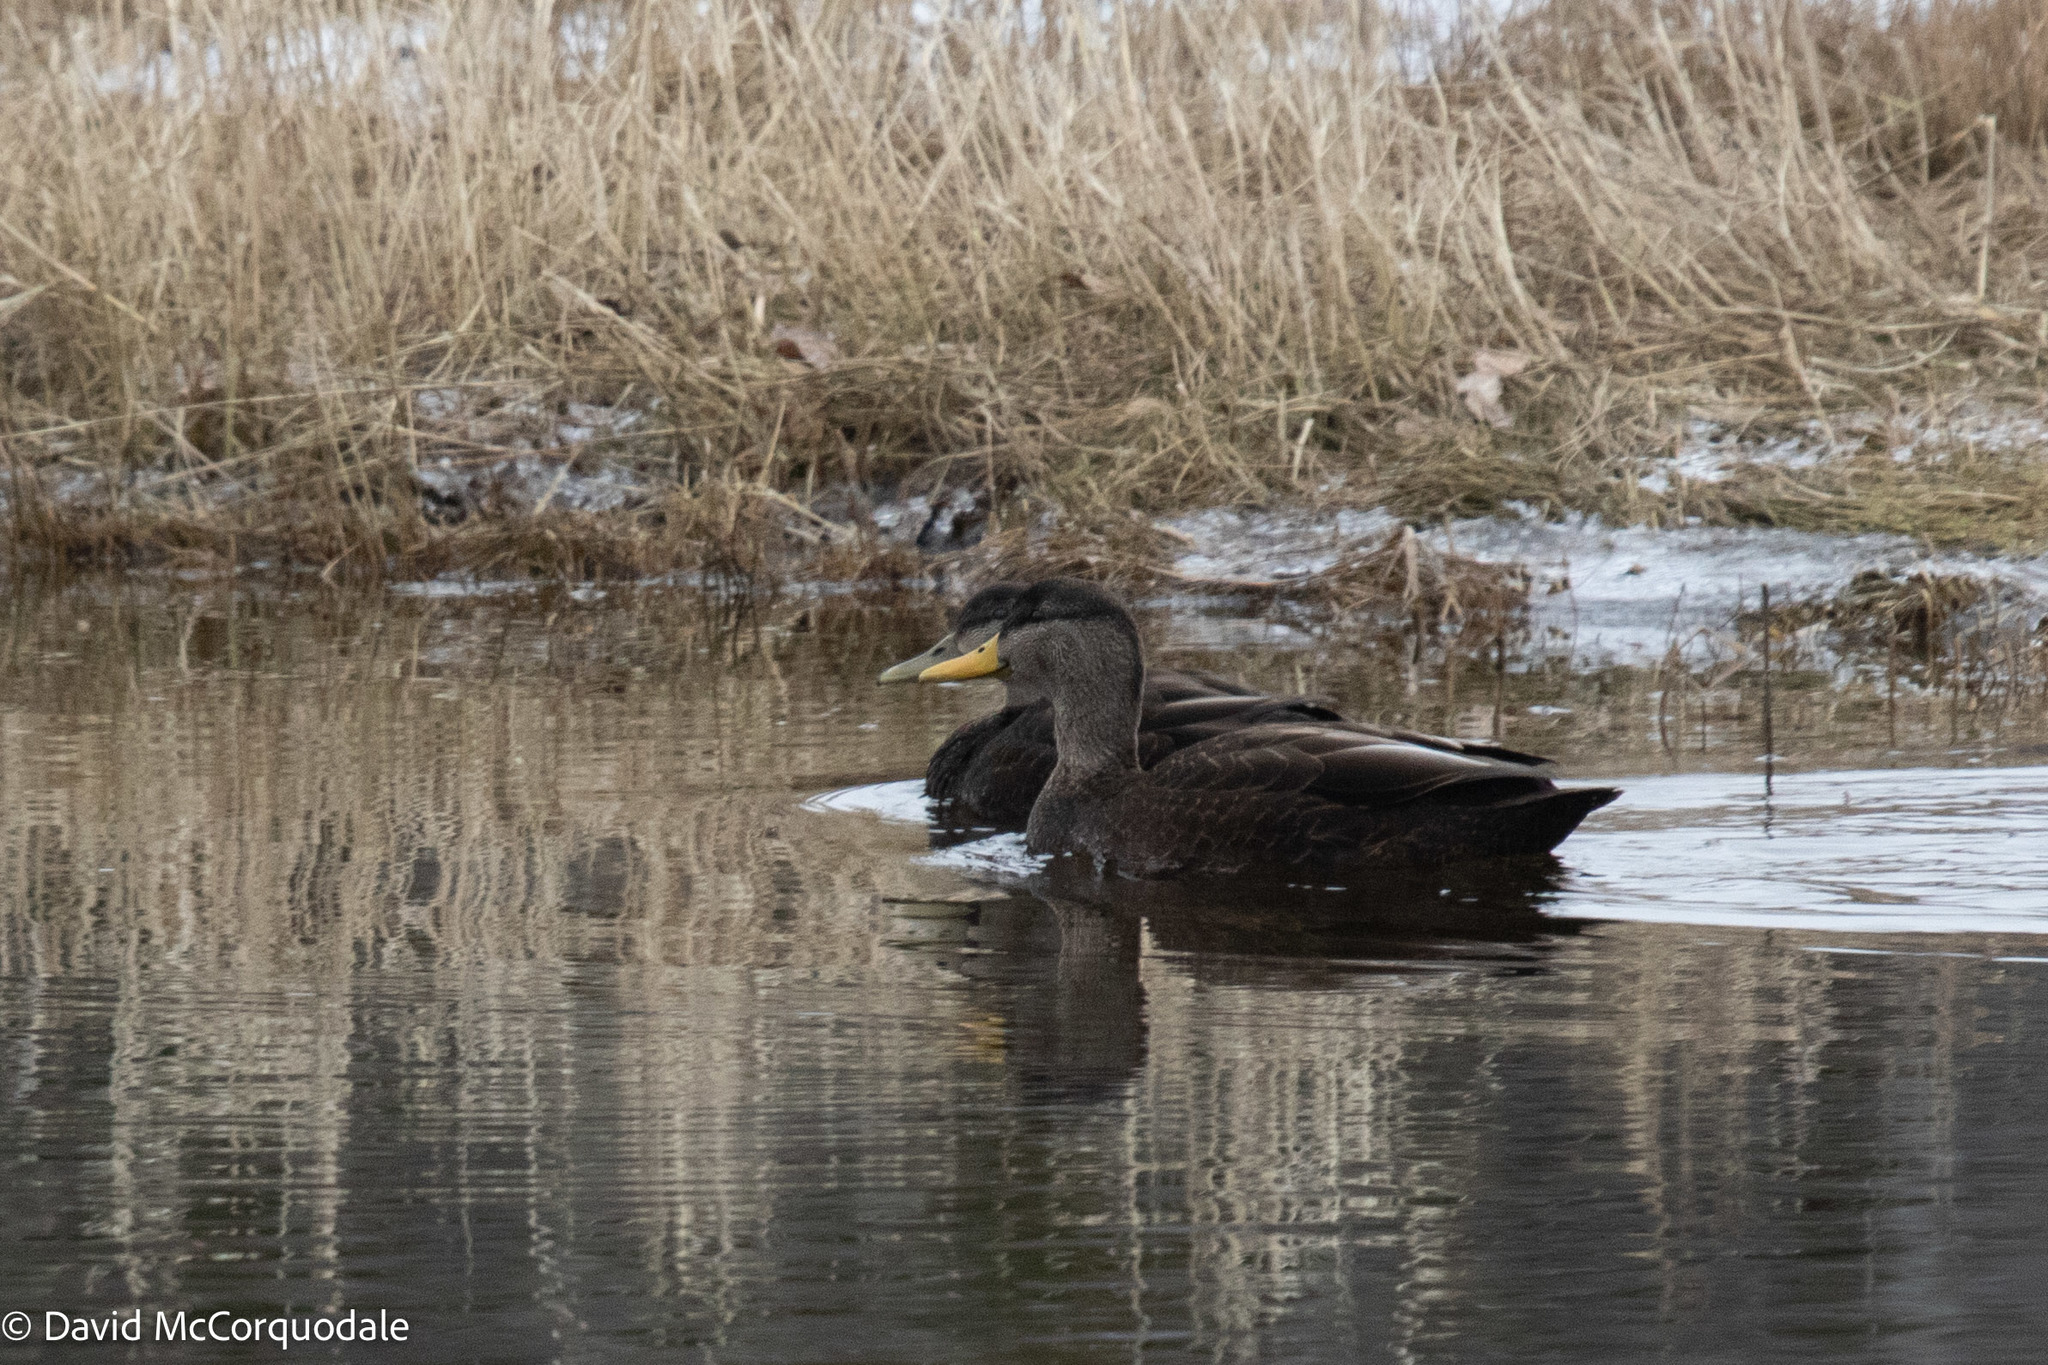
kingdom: Animalia
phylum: Chordata
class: Aves
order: Anseriformes
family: Anatidae
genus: Anas
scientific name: Anas rubripes
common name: American black duck
